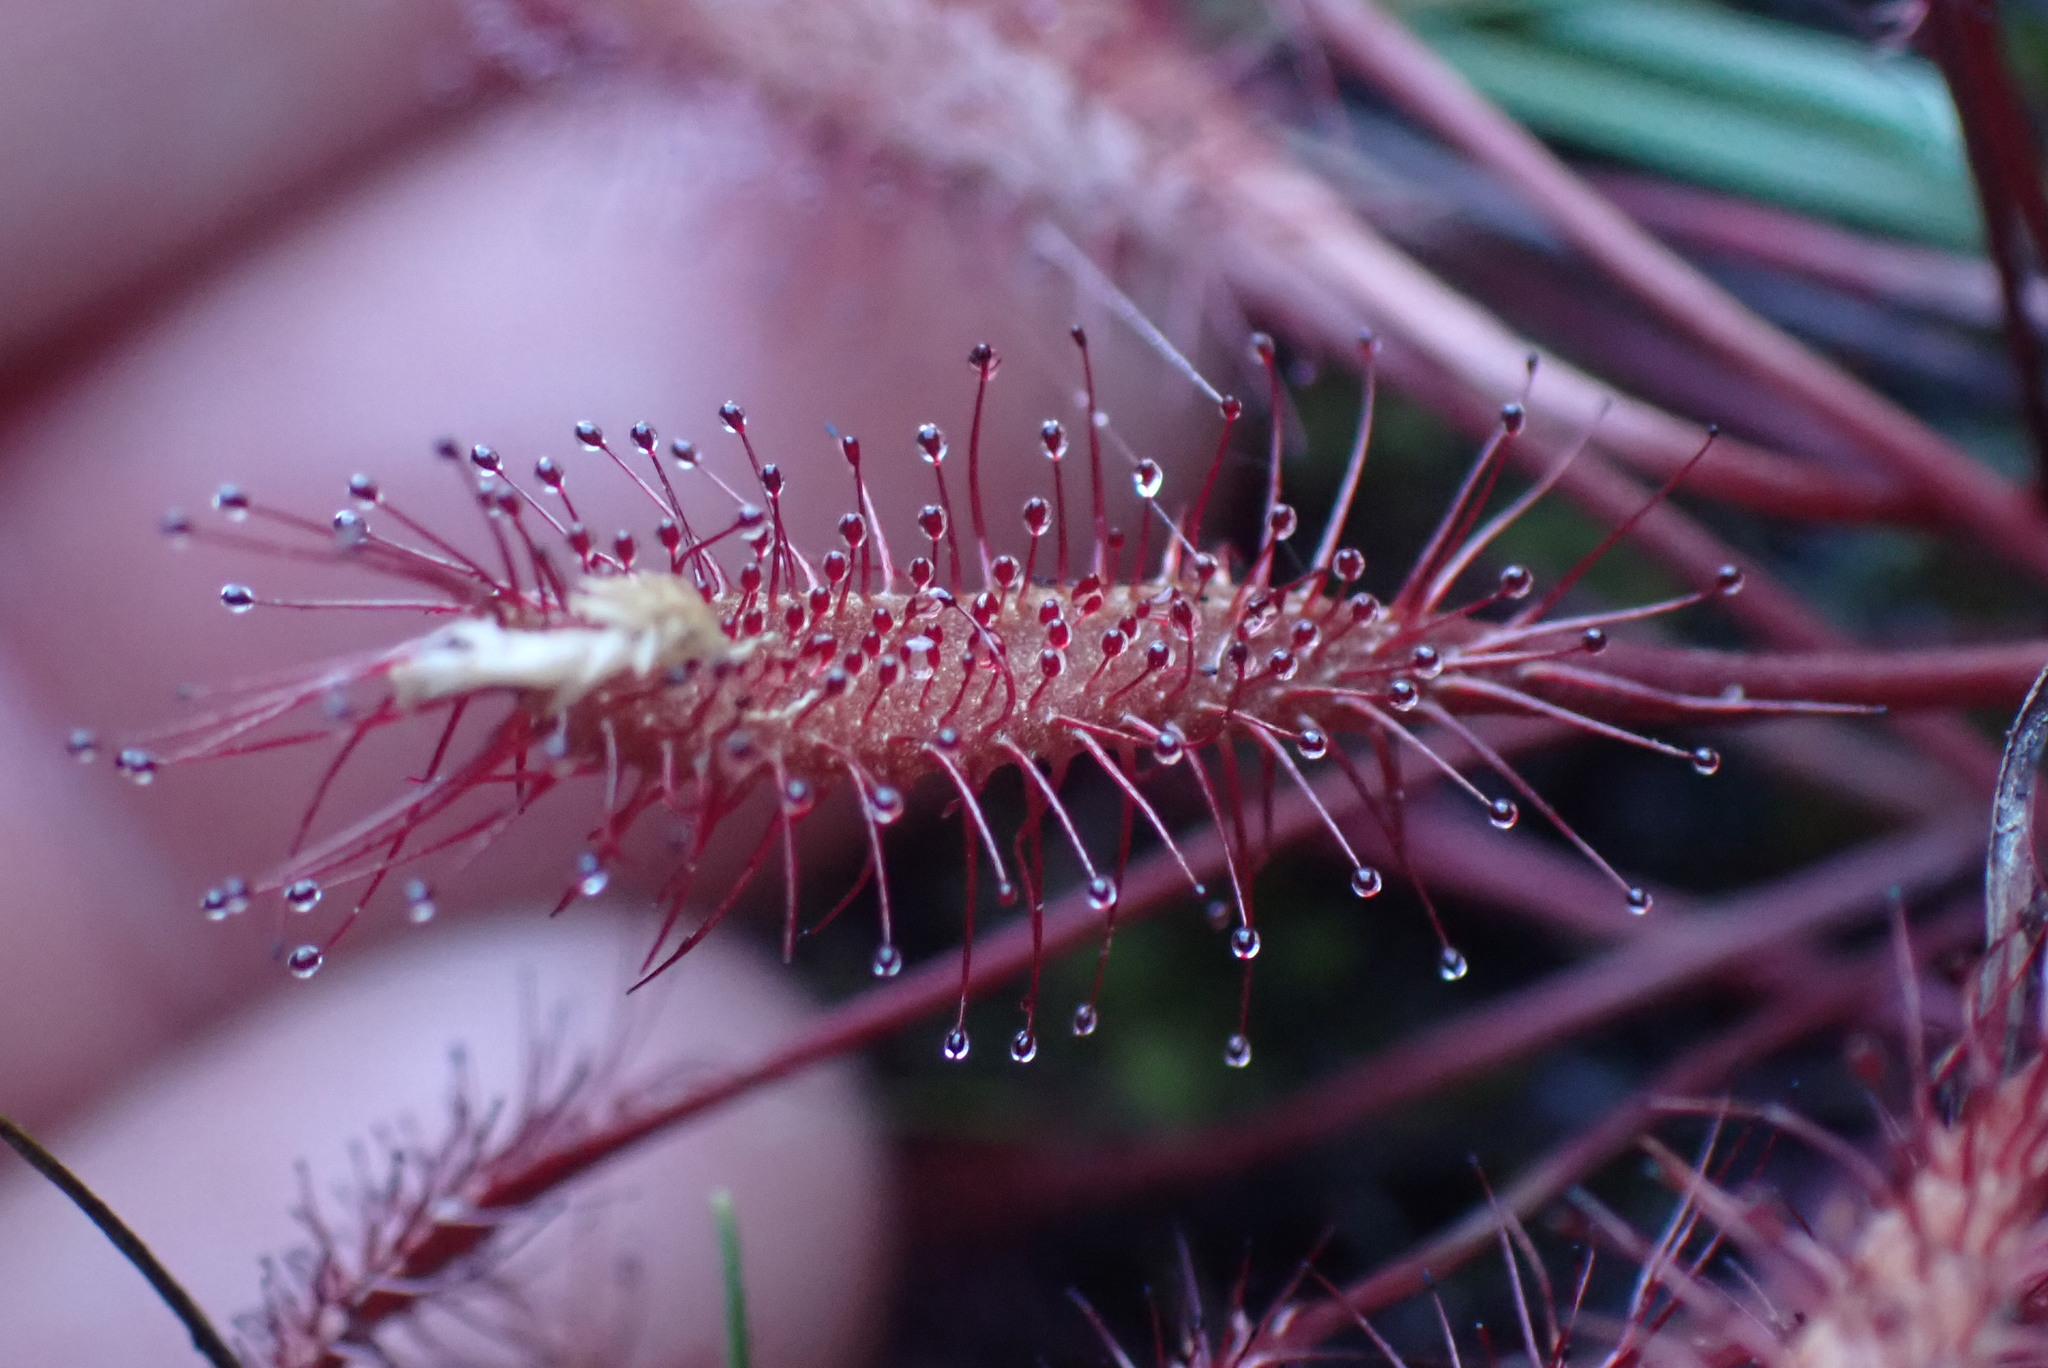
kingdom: Plantae
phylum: Tracheophyta
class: Magnoliopsida
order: Caryophyllales
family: Droseraceae
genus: Drosera
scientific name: Drosera anglica
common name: Great sundew
